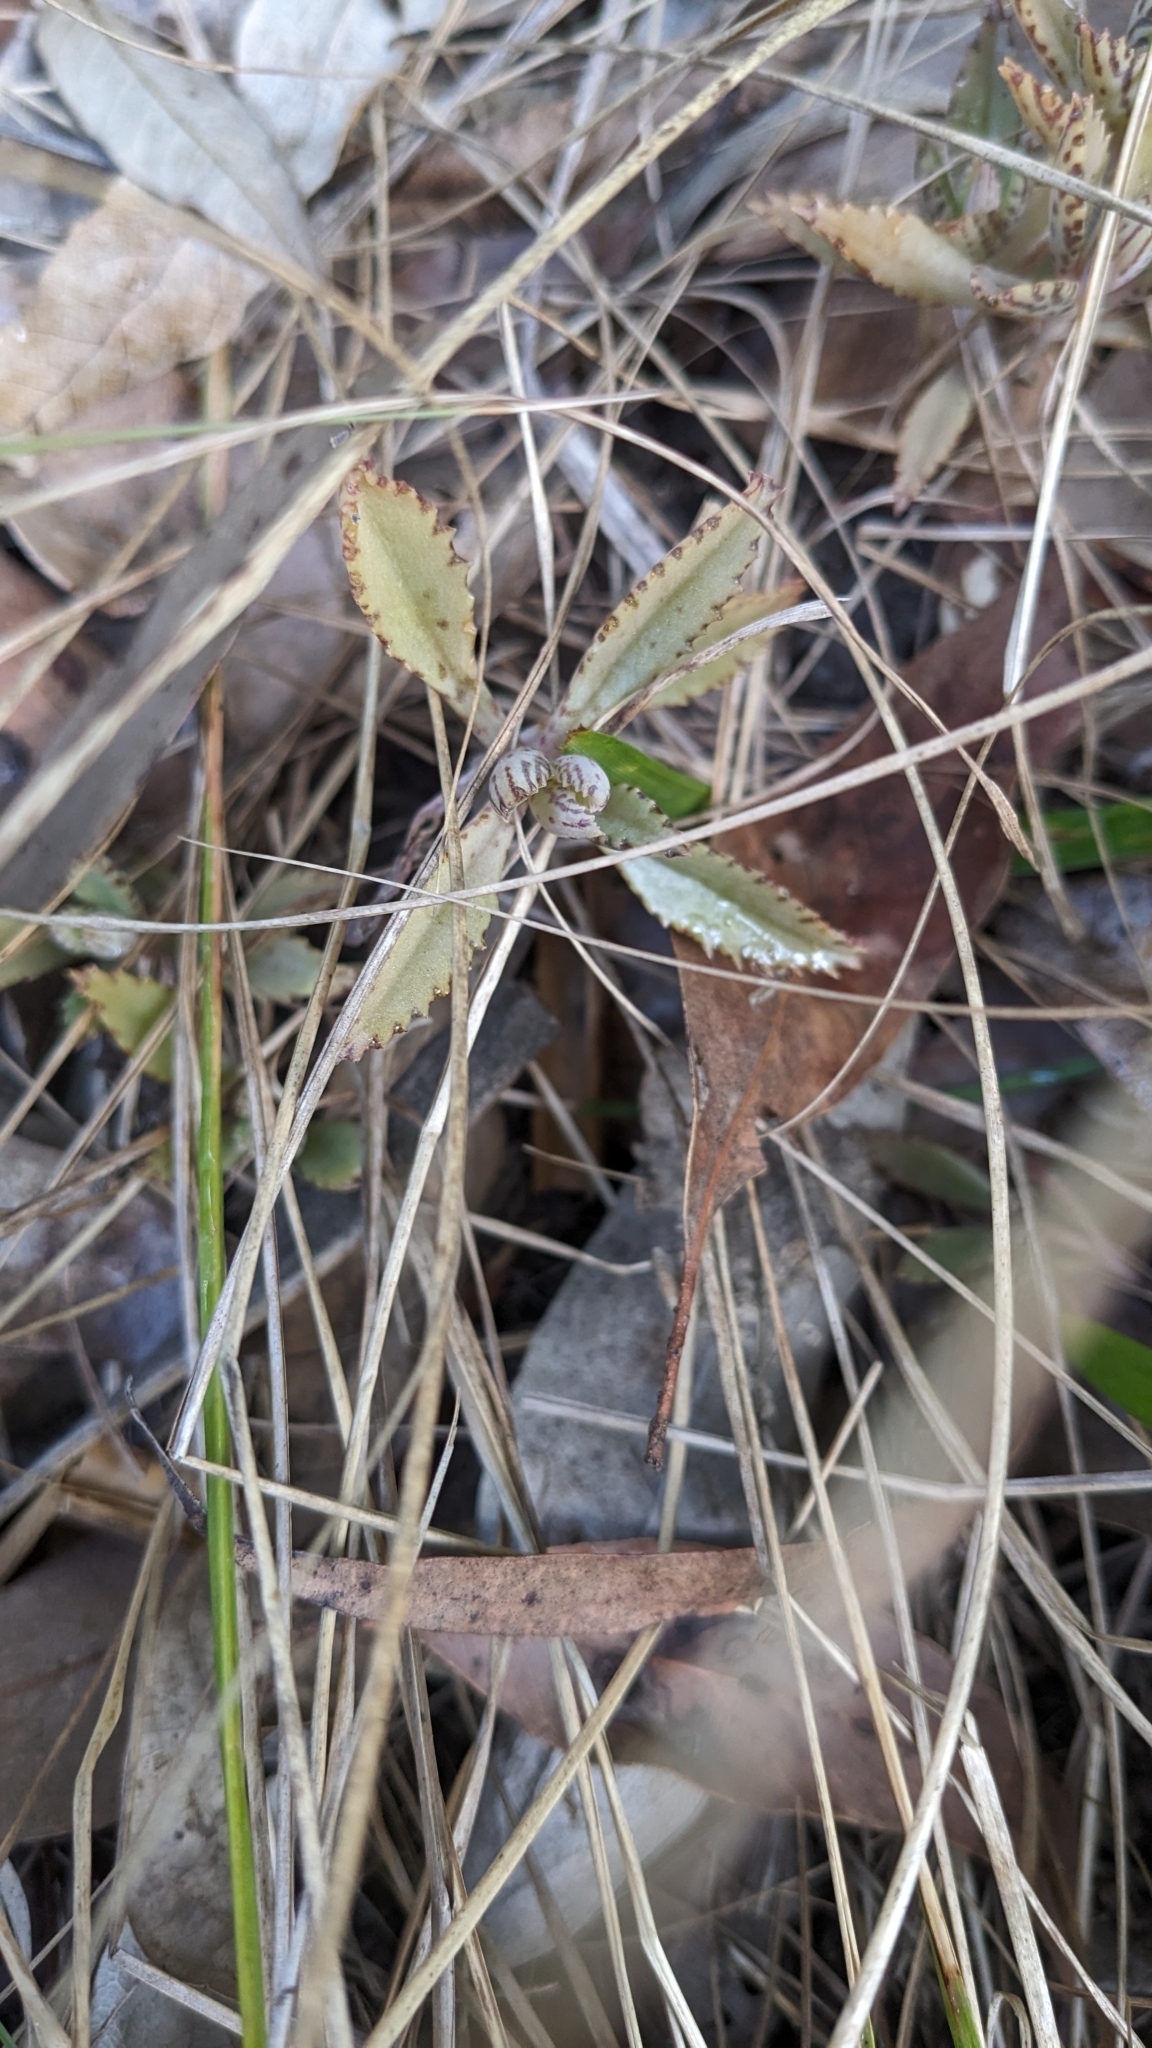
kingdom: Plantae
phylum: Tracheophyta
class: Magnoliopsida
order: Saxifragales
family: Crassulaceae
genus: Kalanchoe
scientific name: Kalanchoe houghtonii
